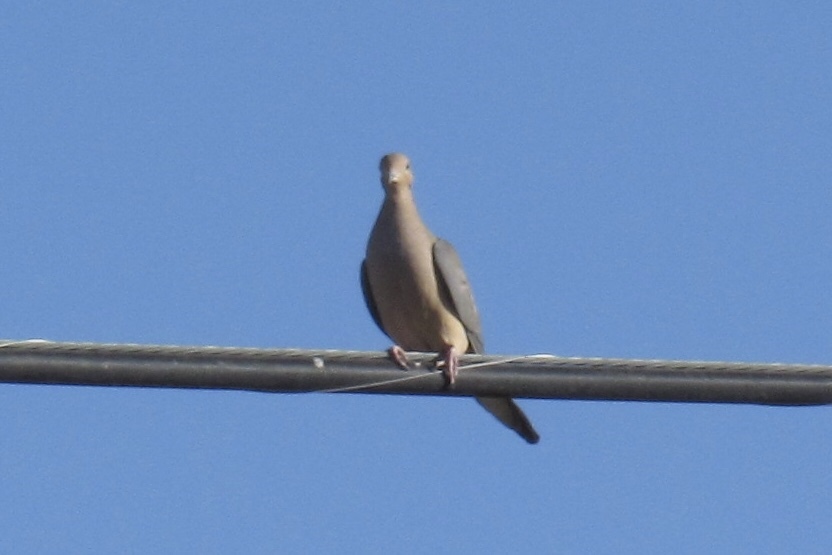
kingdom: Animalia
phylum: Chordata
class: Aves
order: Columbiformes
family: Columbidae
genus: Zenaida
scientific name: Zenaida macroura
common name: Mourning dove
